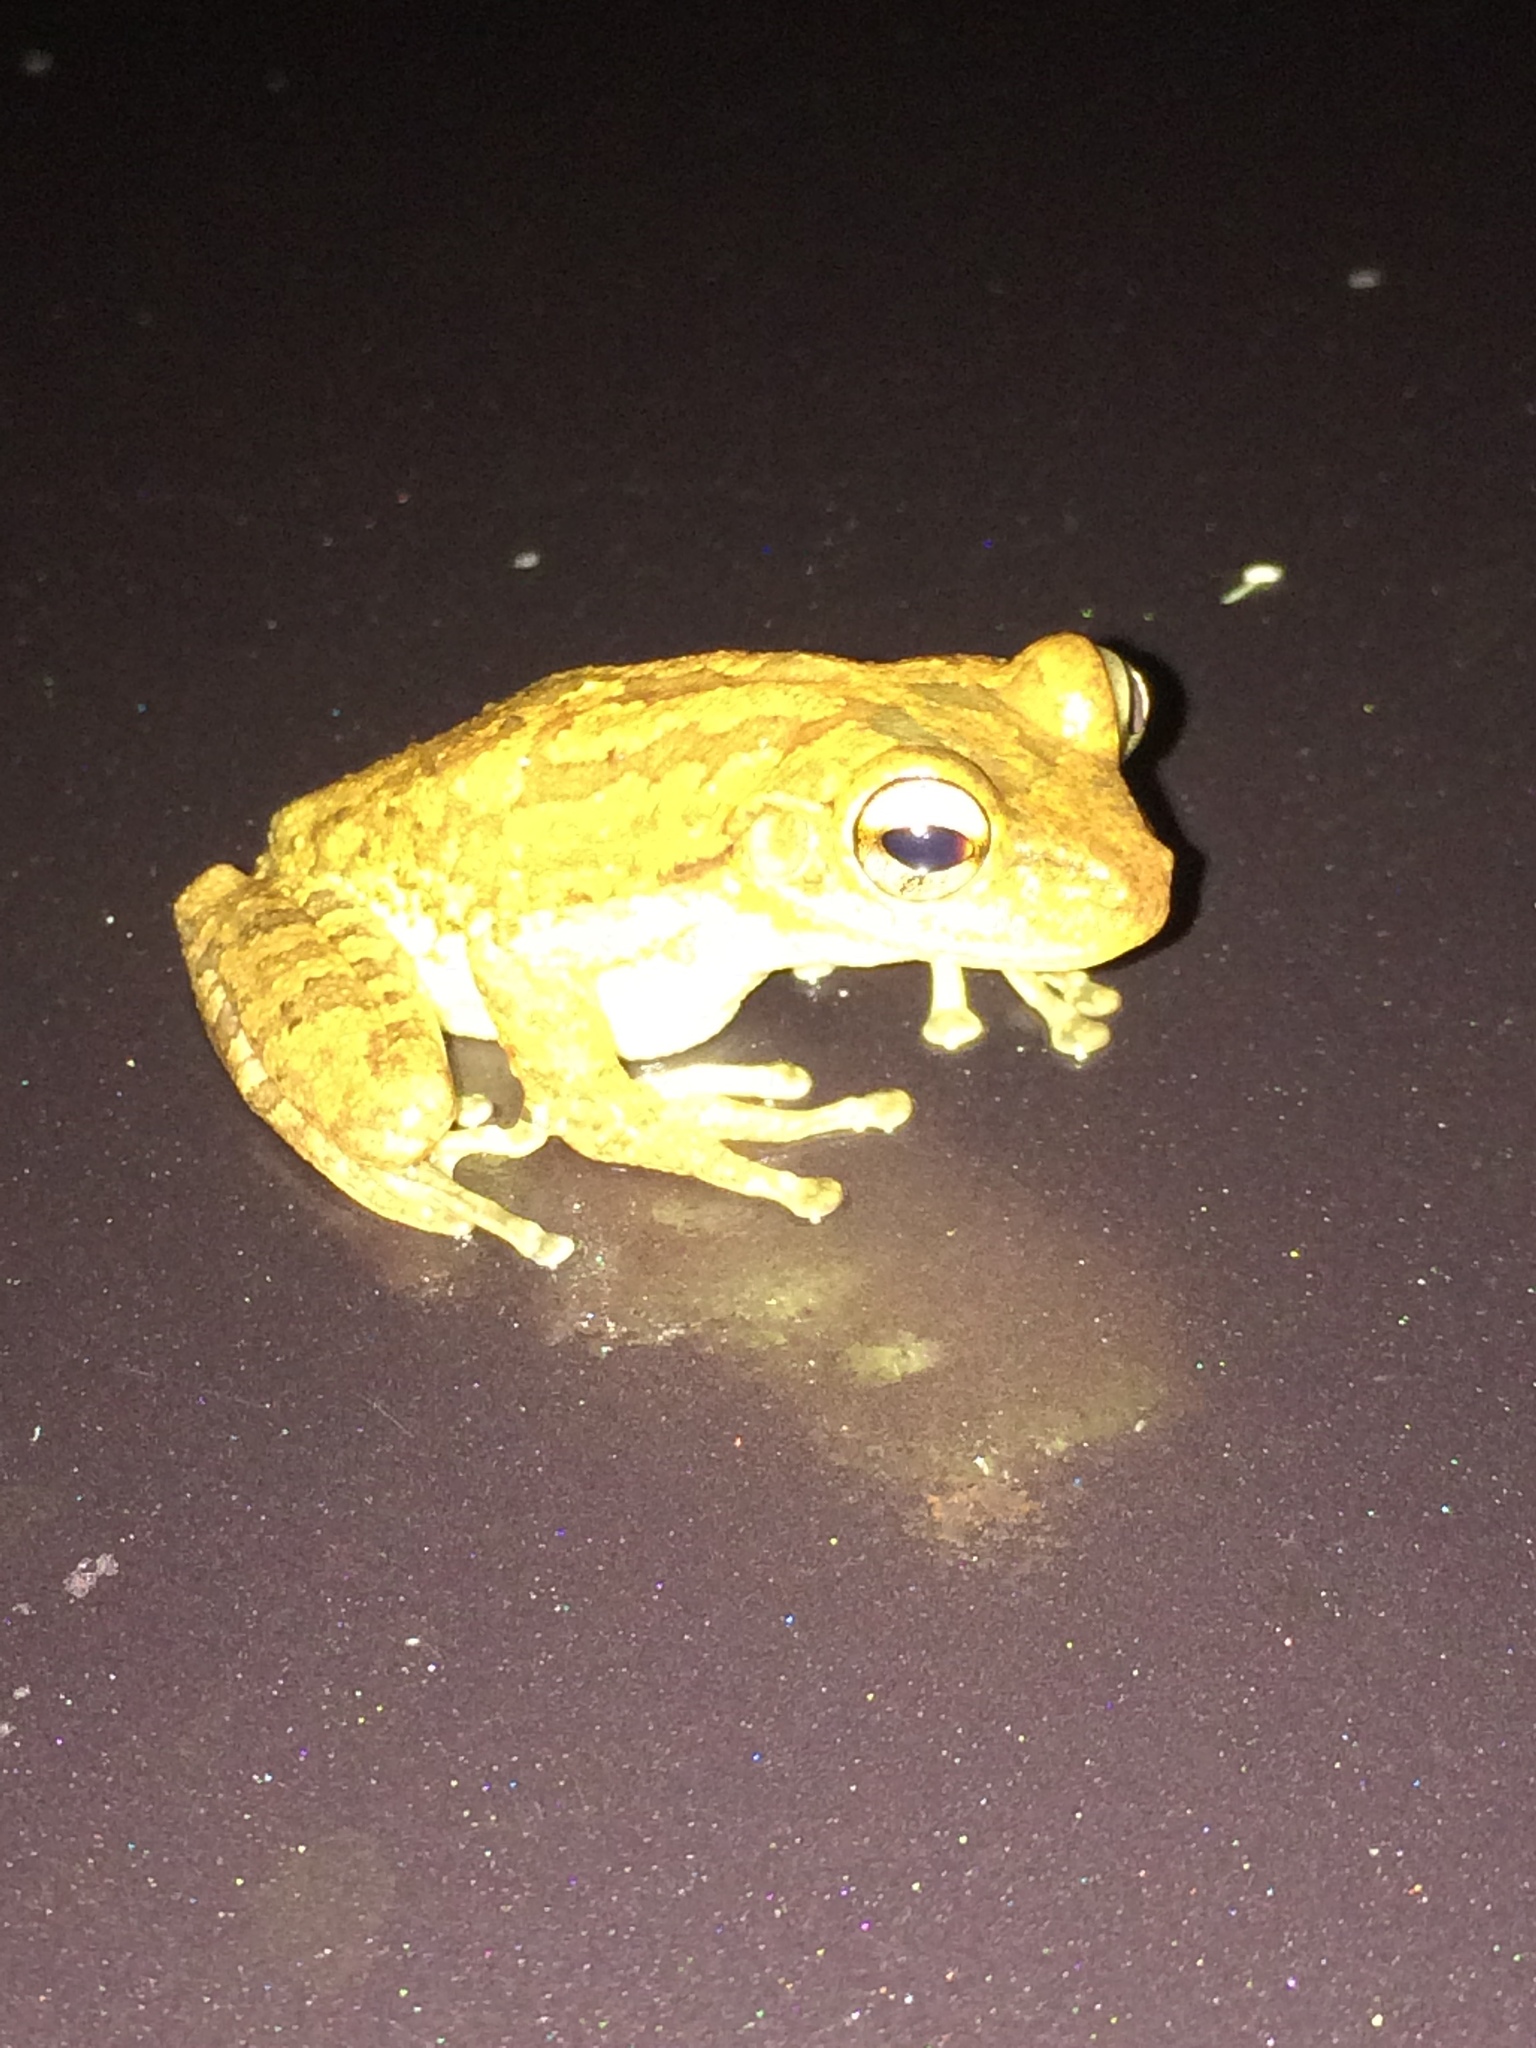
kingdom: Animalia
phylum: Chordata
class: Amphibia
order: Anura
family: Hylidae
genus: Osteopilus
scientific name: Osteopilus septentrionalis
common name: Cuban treefrog
